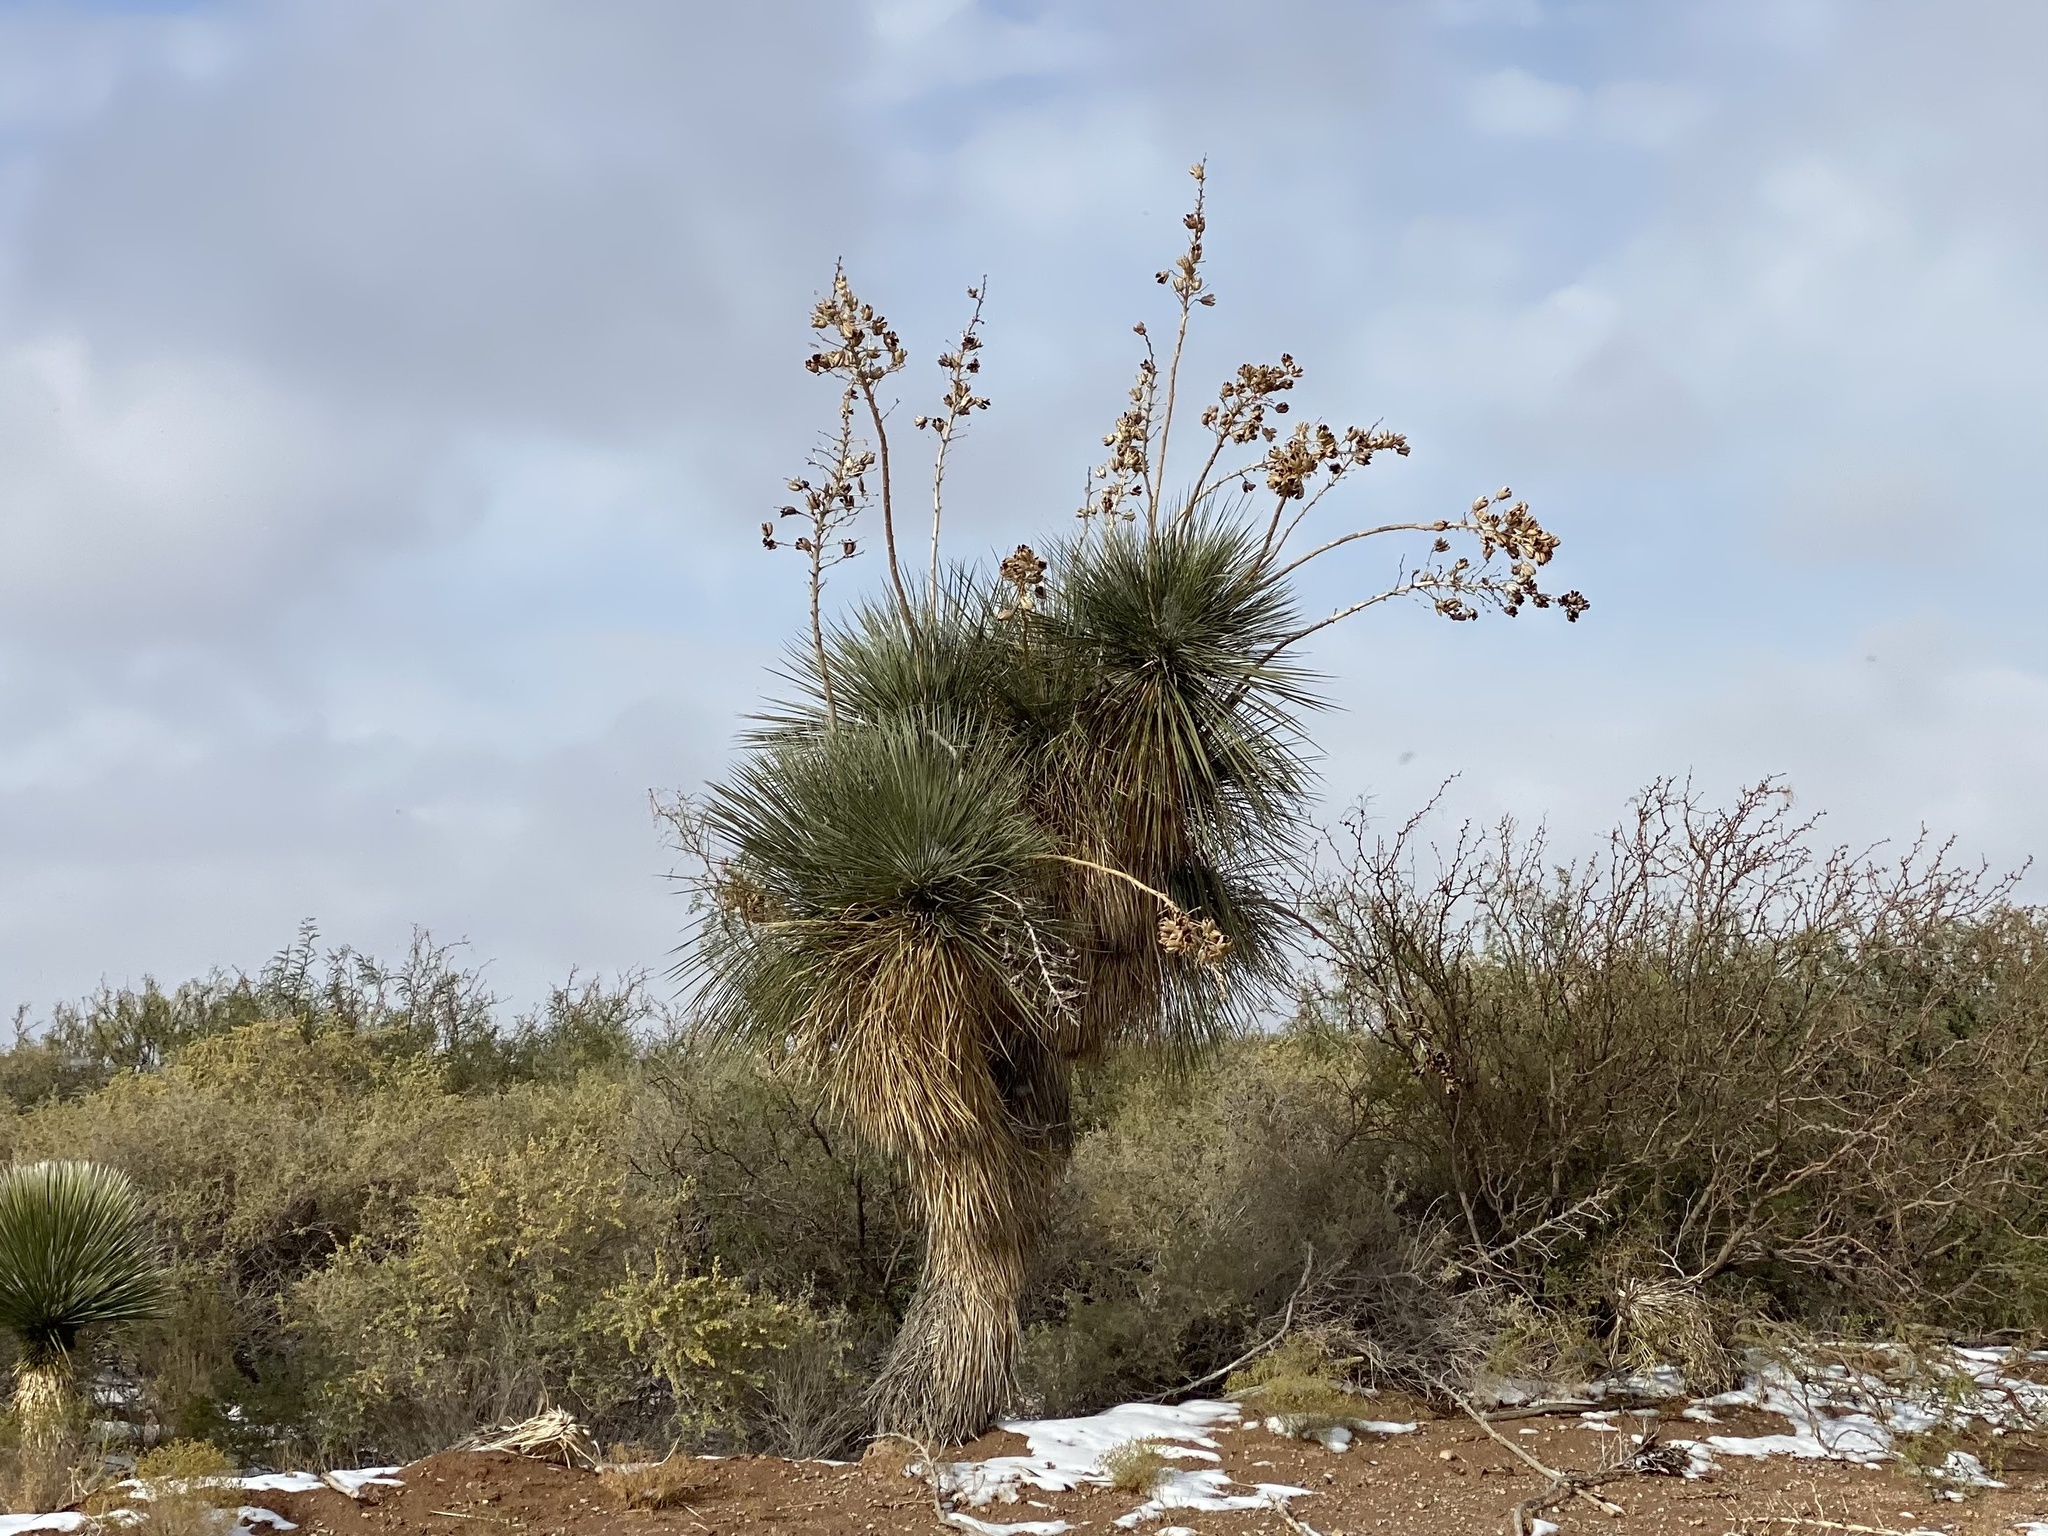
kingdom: Plantae
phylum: Tracheophyta
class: Liliopsida
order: Asparagales
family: Asparagaceae
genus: Yucca
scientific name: Yucca elata
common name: Palmella
